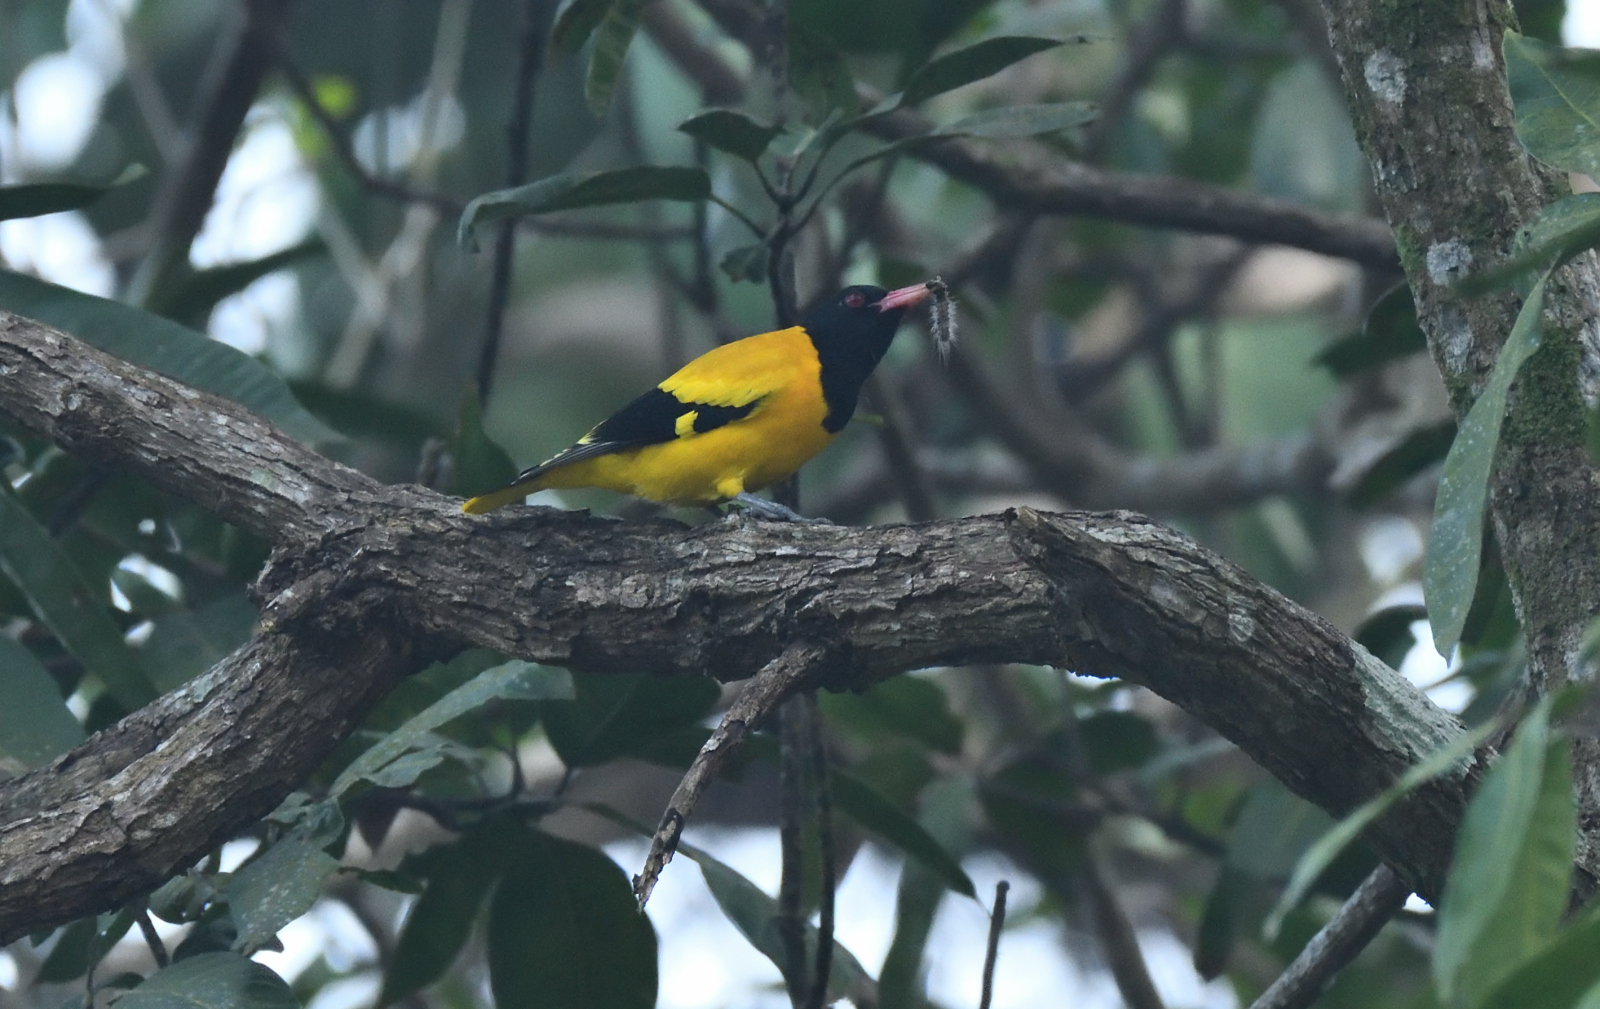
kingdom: Animalia
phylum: Chordata
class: Aves
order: Passeriformes
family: Oriolidae
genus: Oriolus
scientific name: Oriolus xanthornus
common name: Black-hooded oriole
